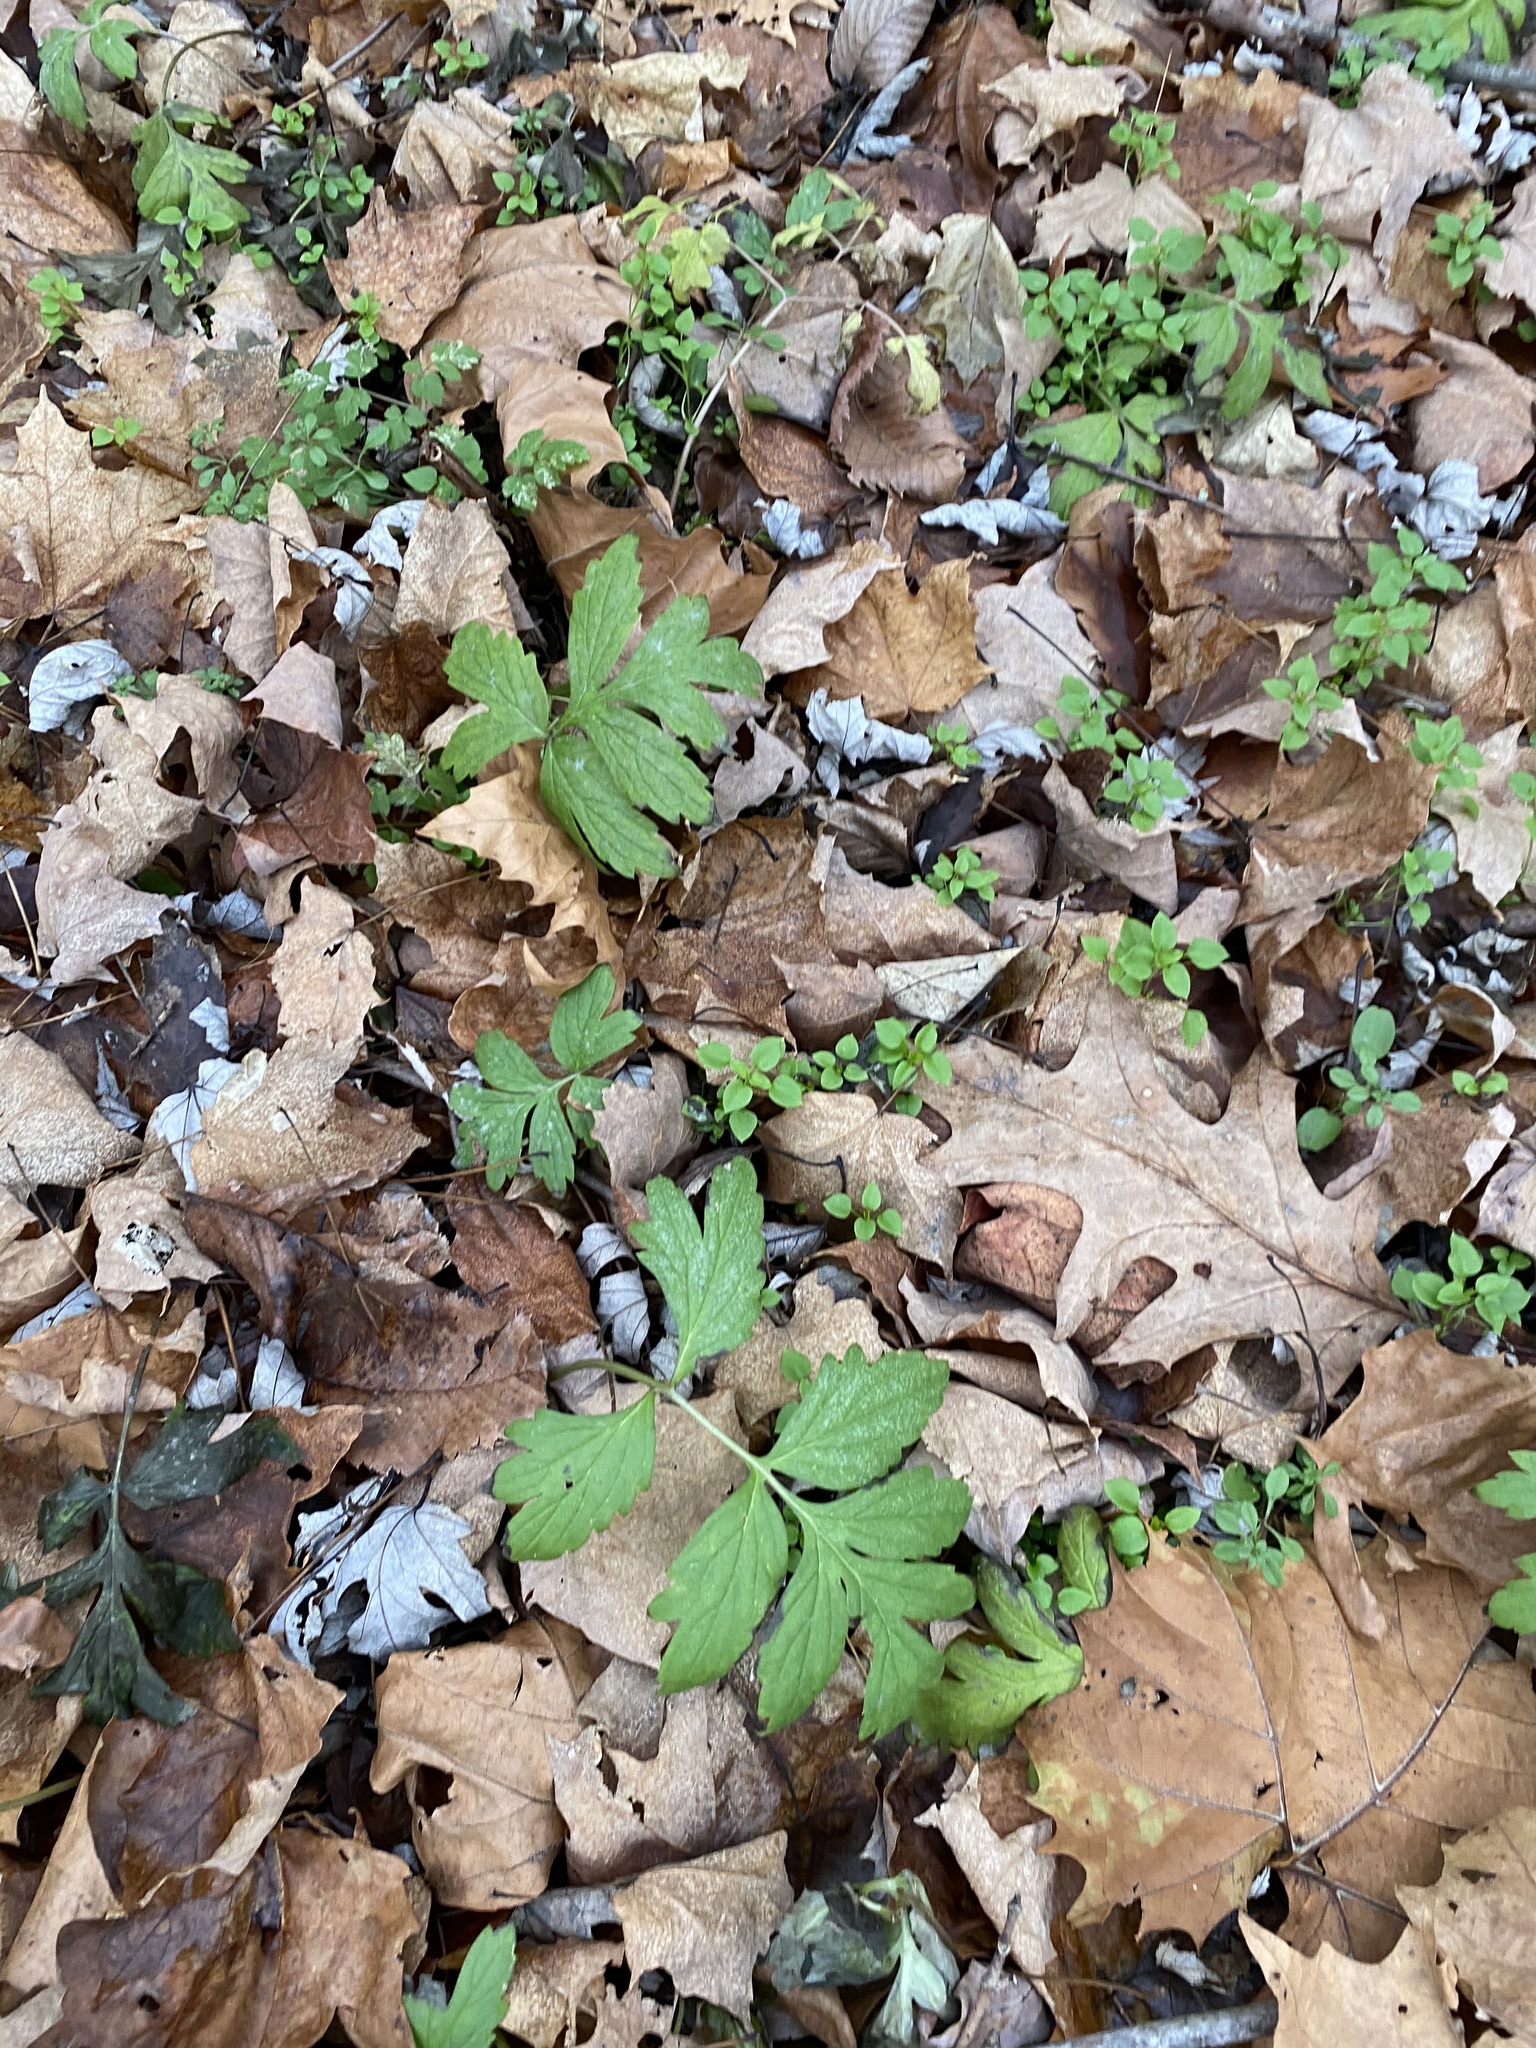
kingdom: Plantae
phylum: Tracheophyta
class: Magnoliopsida
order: Boraginales
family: Hydrophyllaceae
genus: Hydrophyllum
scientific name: Hydrophyllum virginianum
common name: Virginia waterleaf
